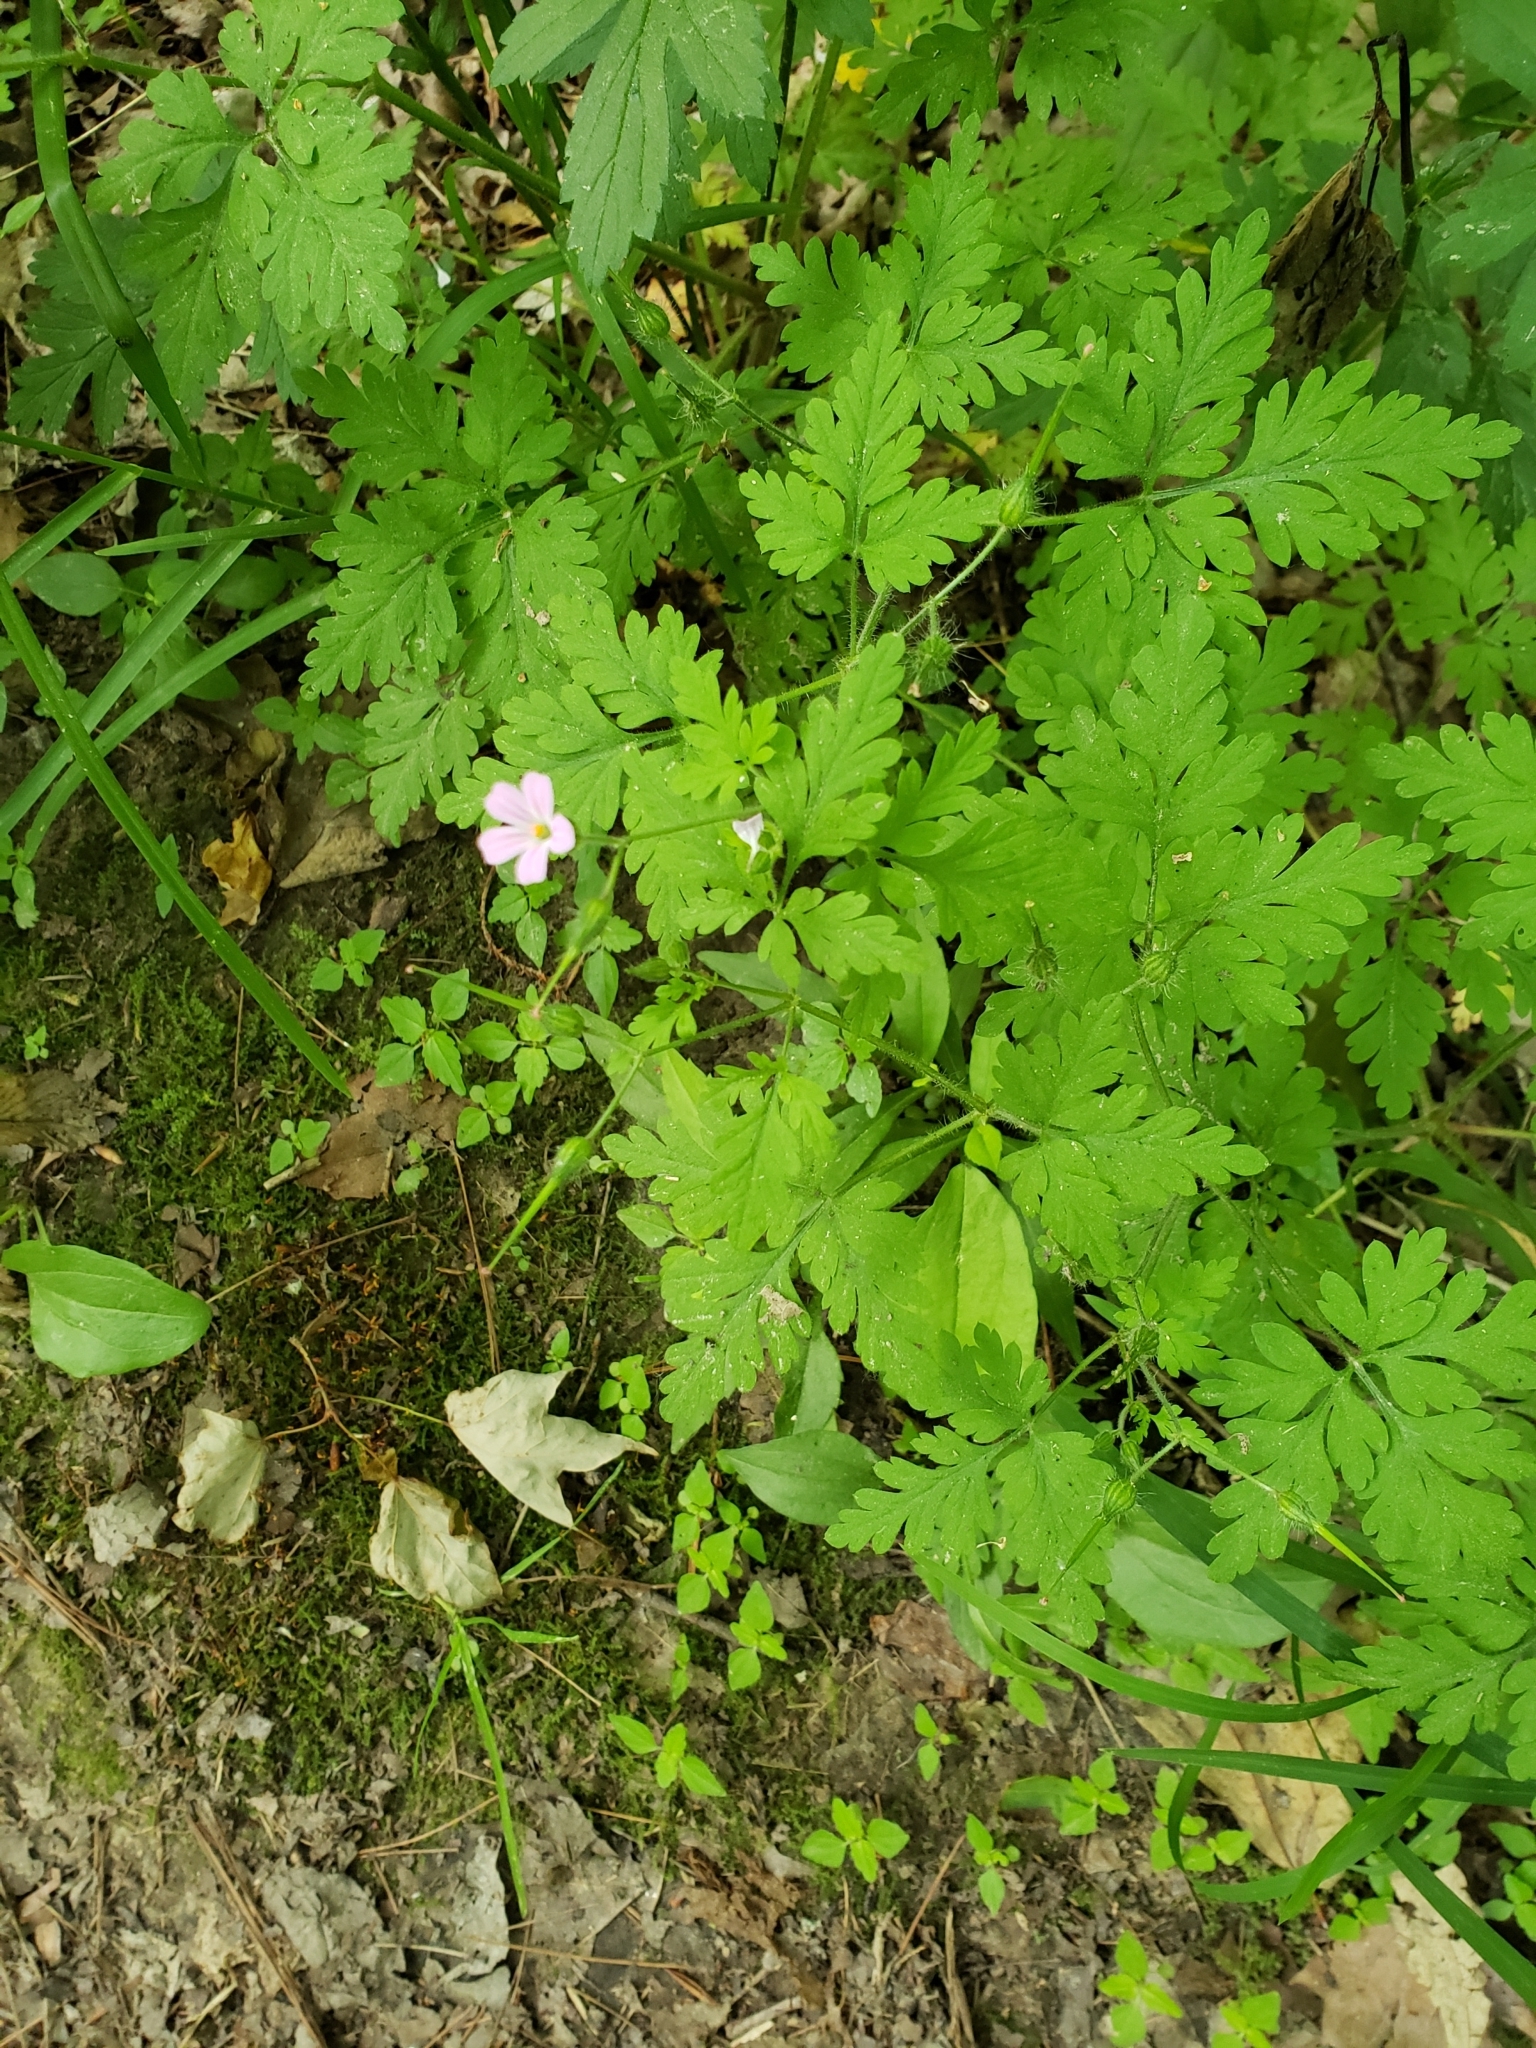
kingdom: Plantae
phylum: Tracheophyta
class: Magnoliopsida
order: Geraniales
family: Geraniaceae
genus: Geranium
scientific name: Geranium robertianum
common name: Herb-robert
